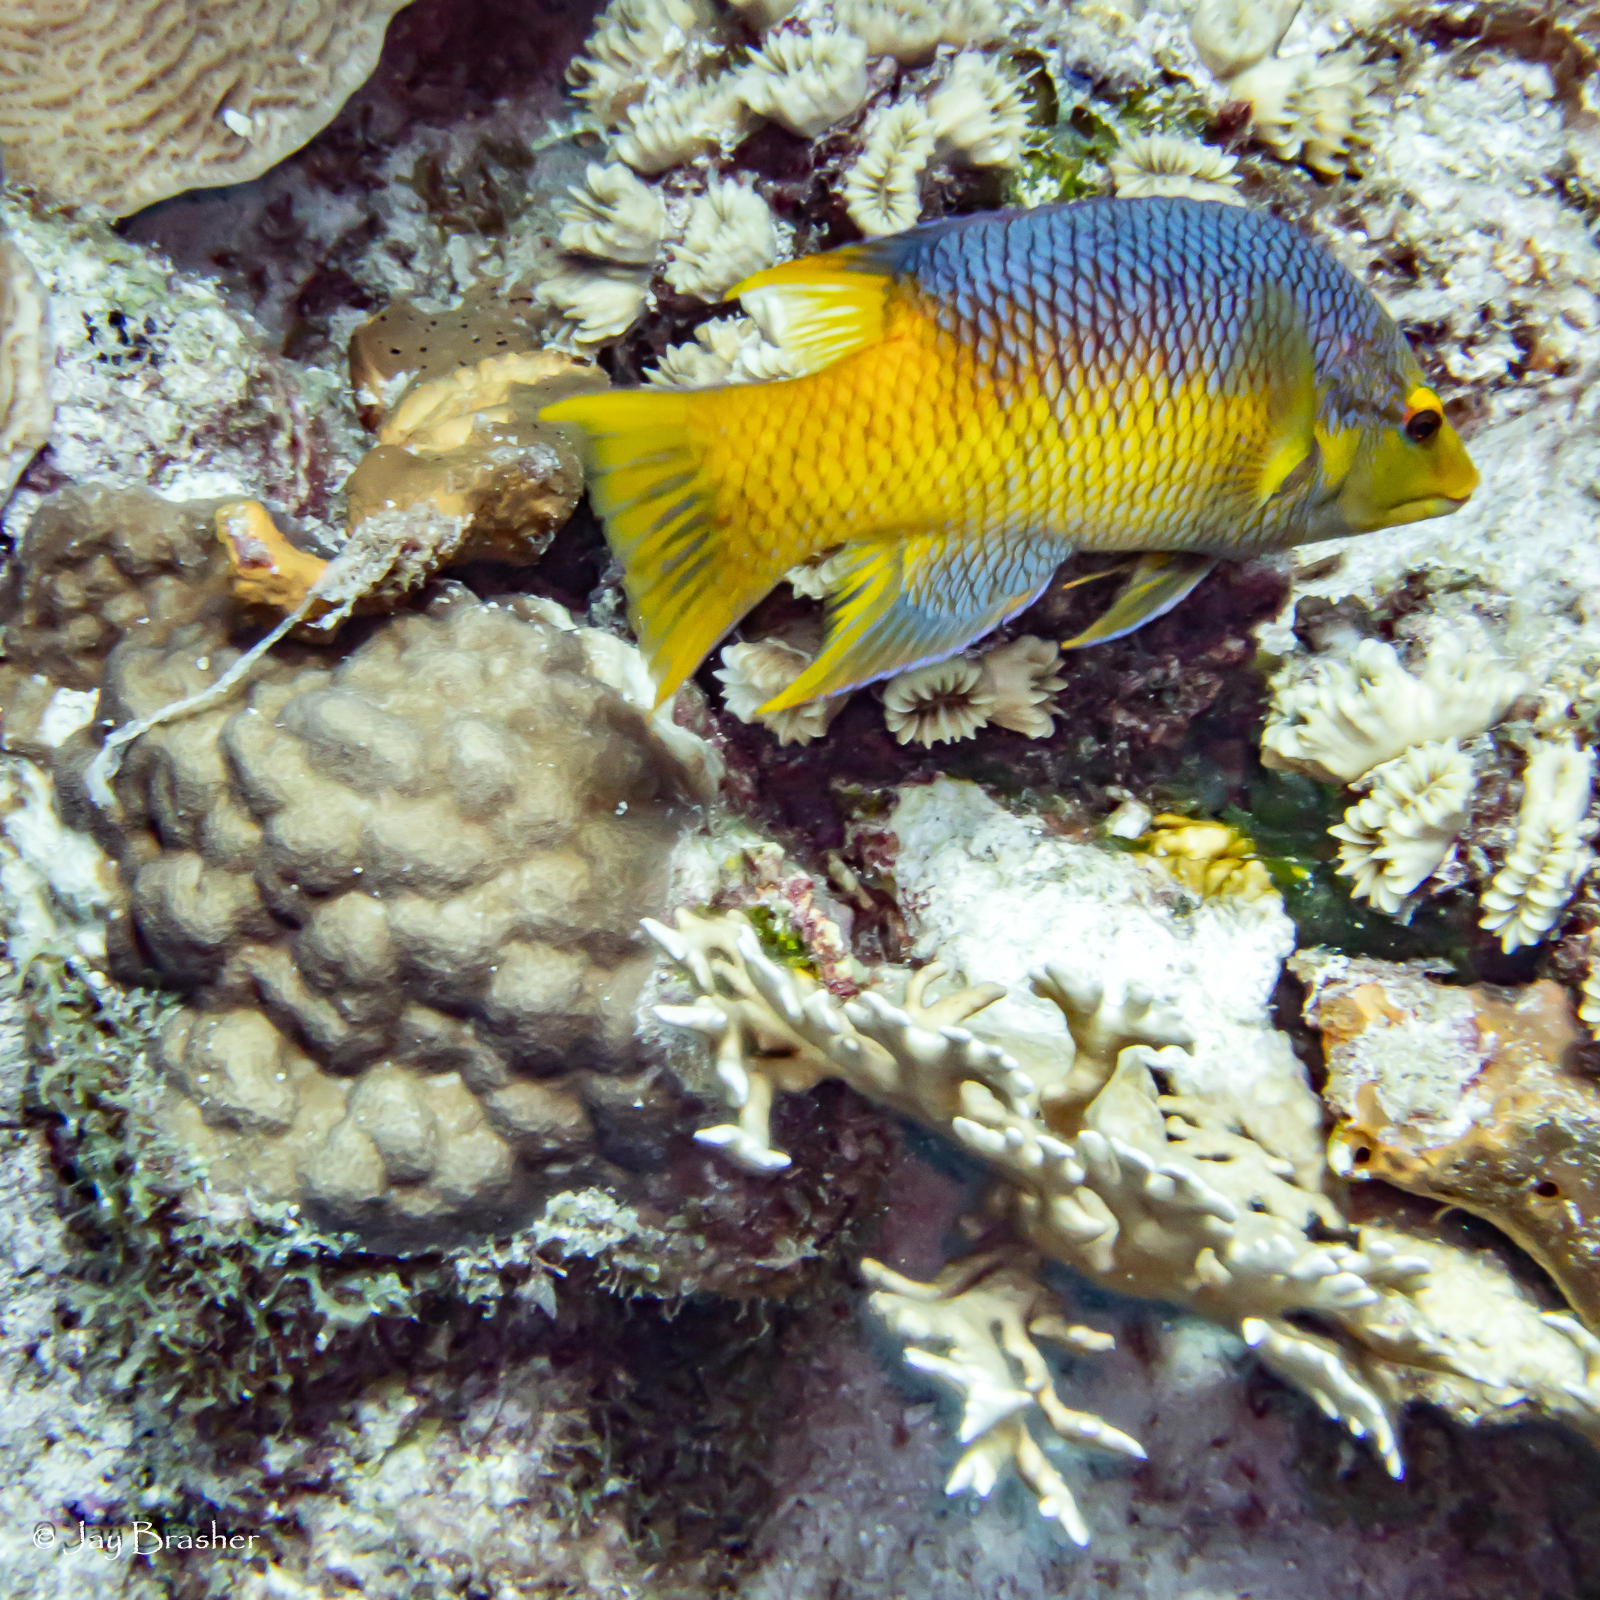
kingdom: Animalia
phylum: Cnidaria
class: Anthozoa
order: Scleractinia
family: Meandrinidae
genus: Eusmilia
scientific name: Eusmilia fastigiata
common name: Smooth flower coral
